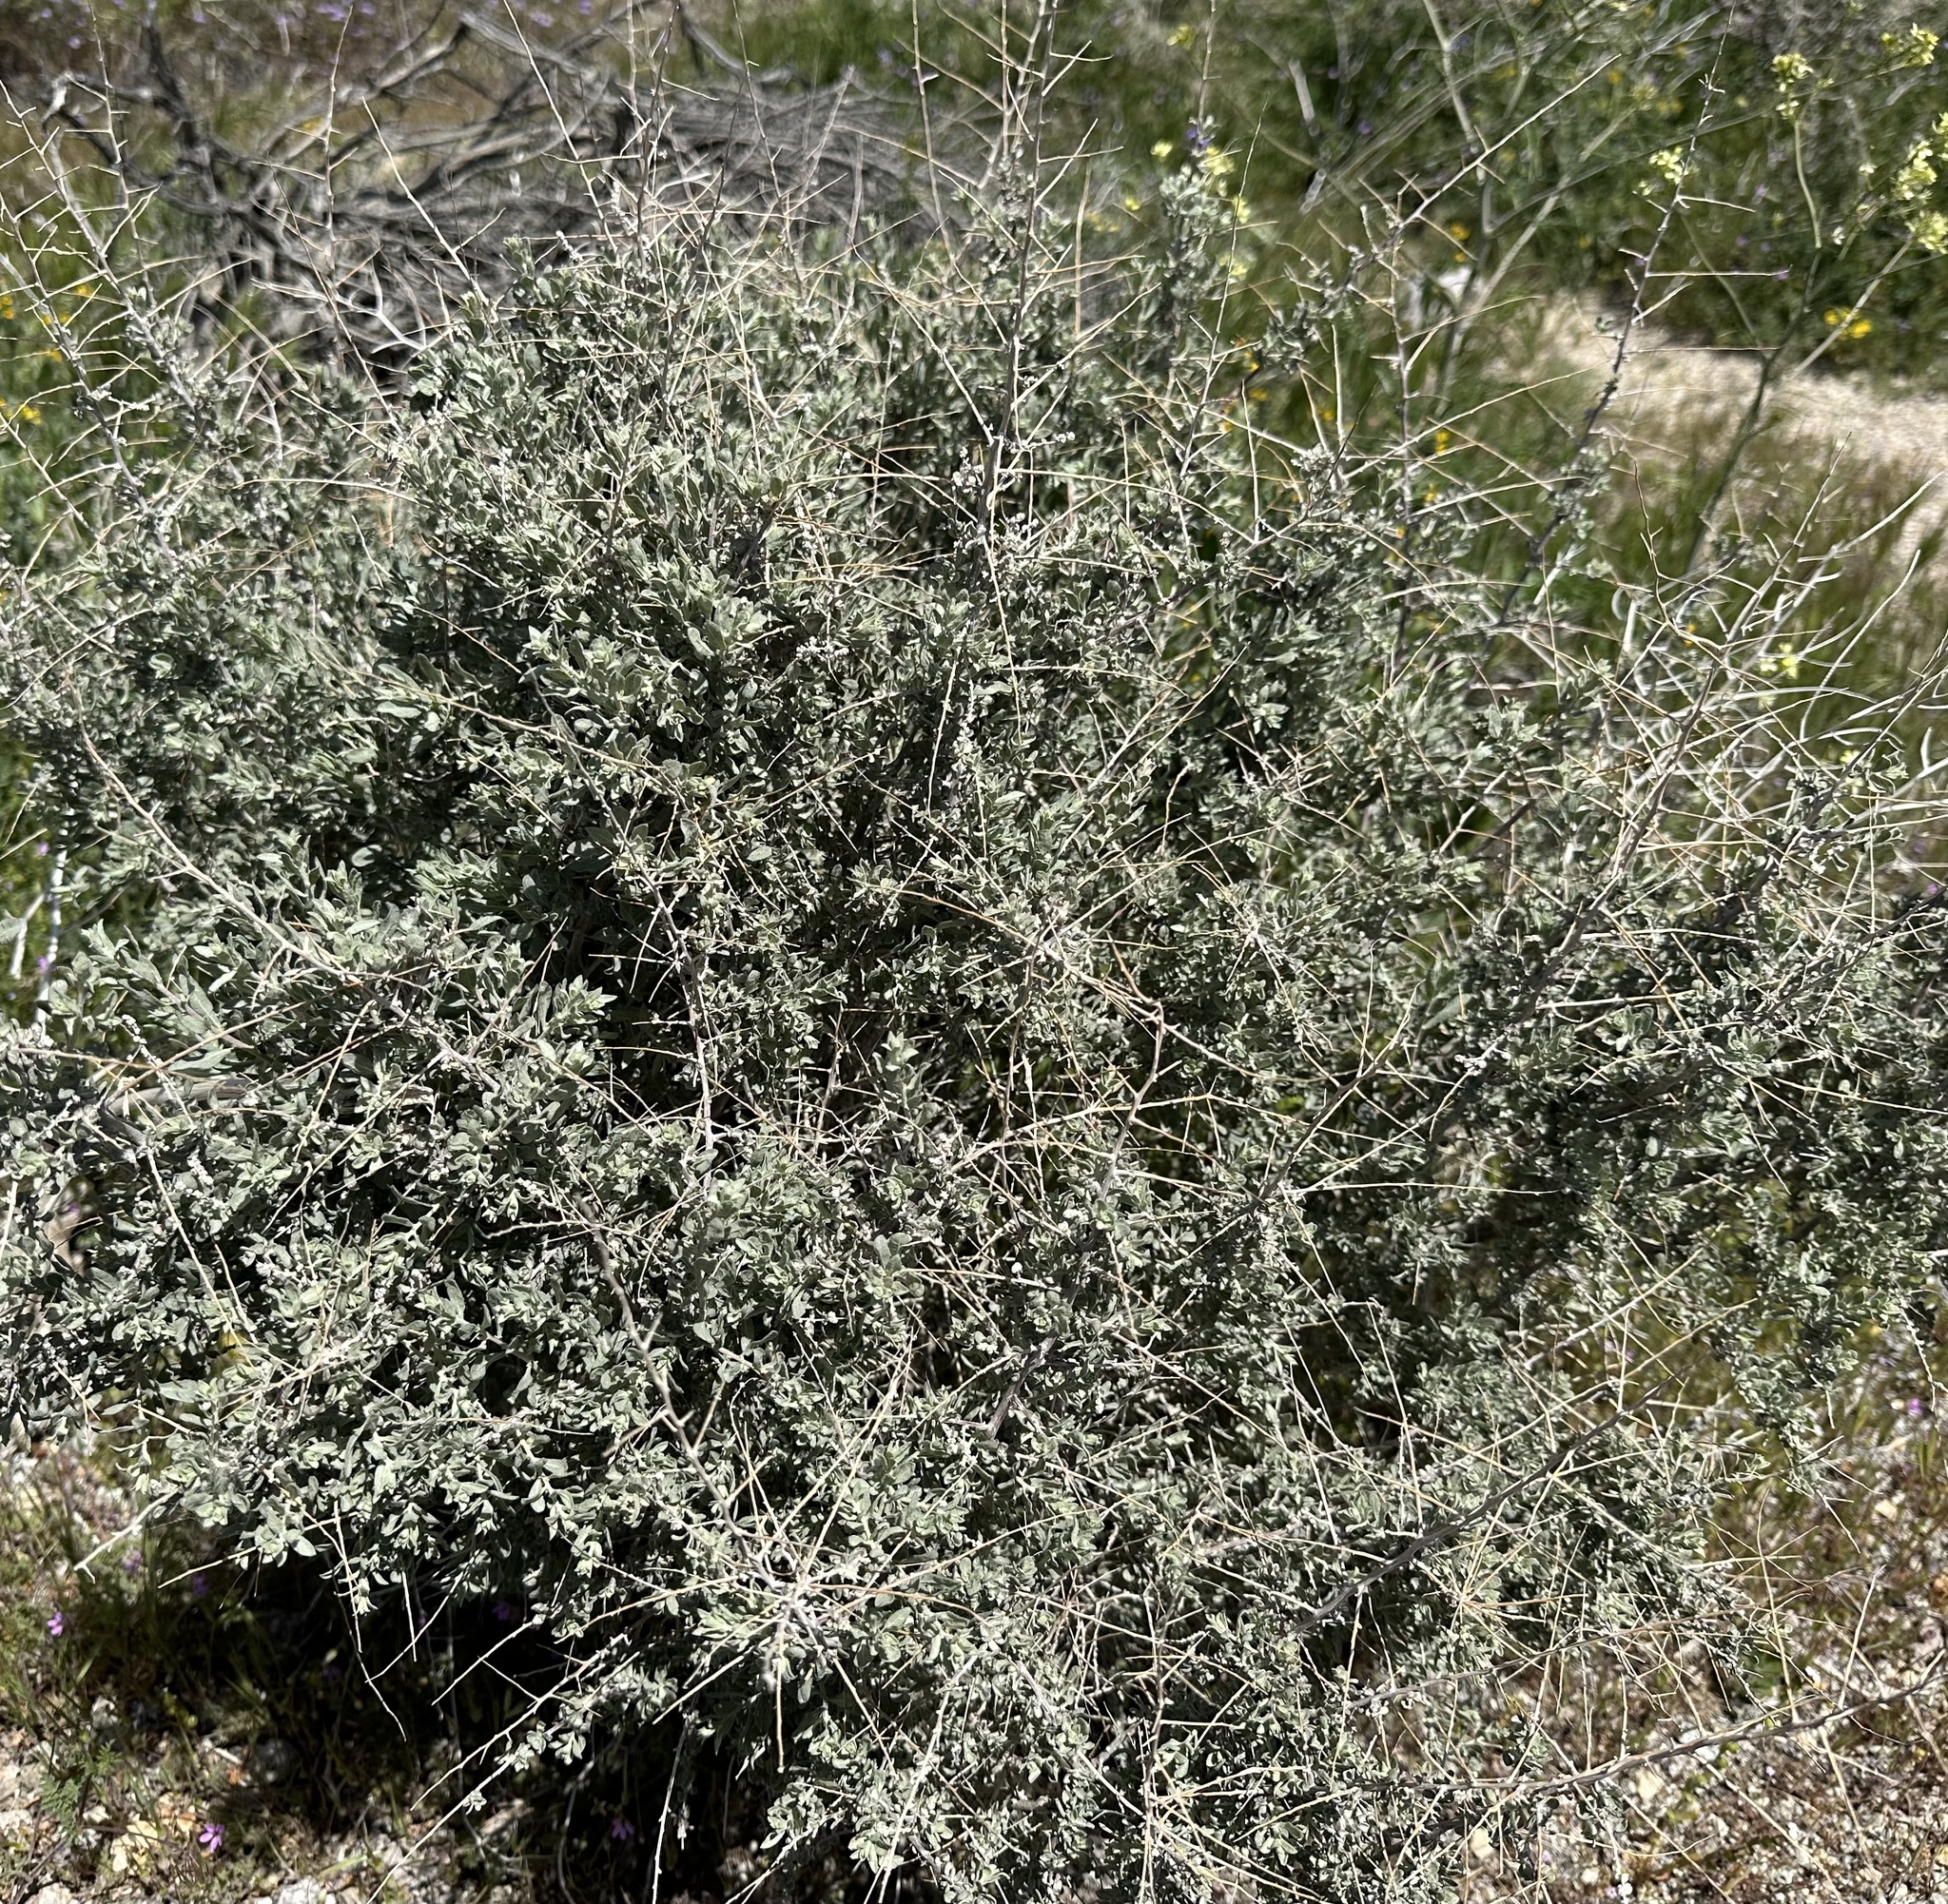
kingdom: Plantae
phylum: Tracheophyta
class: Magnoliopsida
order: Caryophyllales
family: Amaranthaceae
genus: Atriplex
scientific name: Atriplex polycarpa
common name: Desert saltbush
